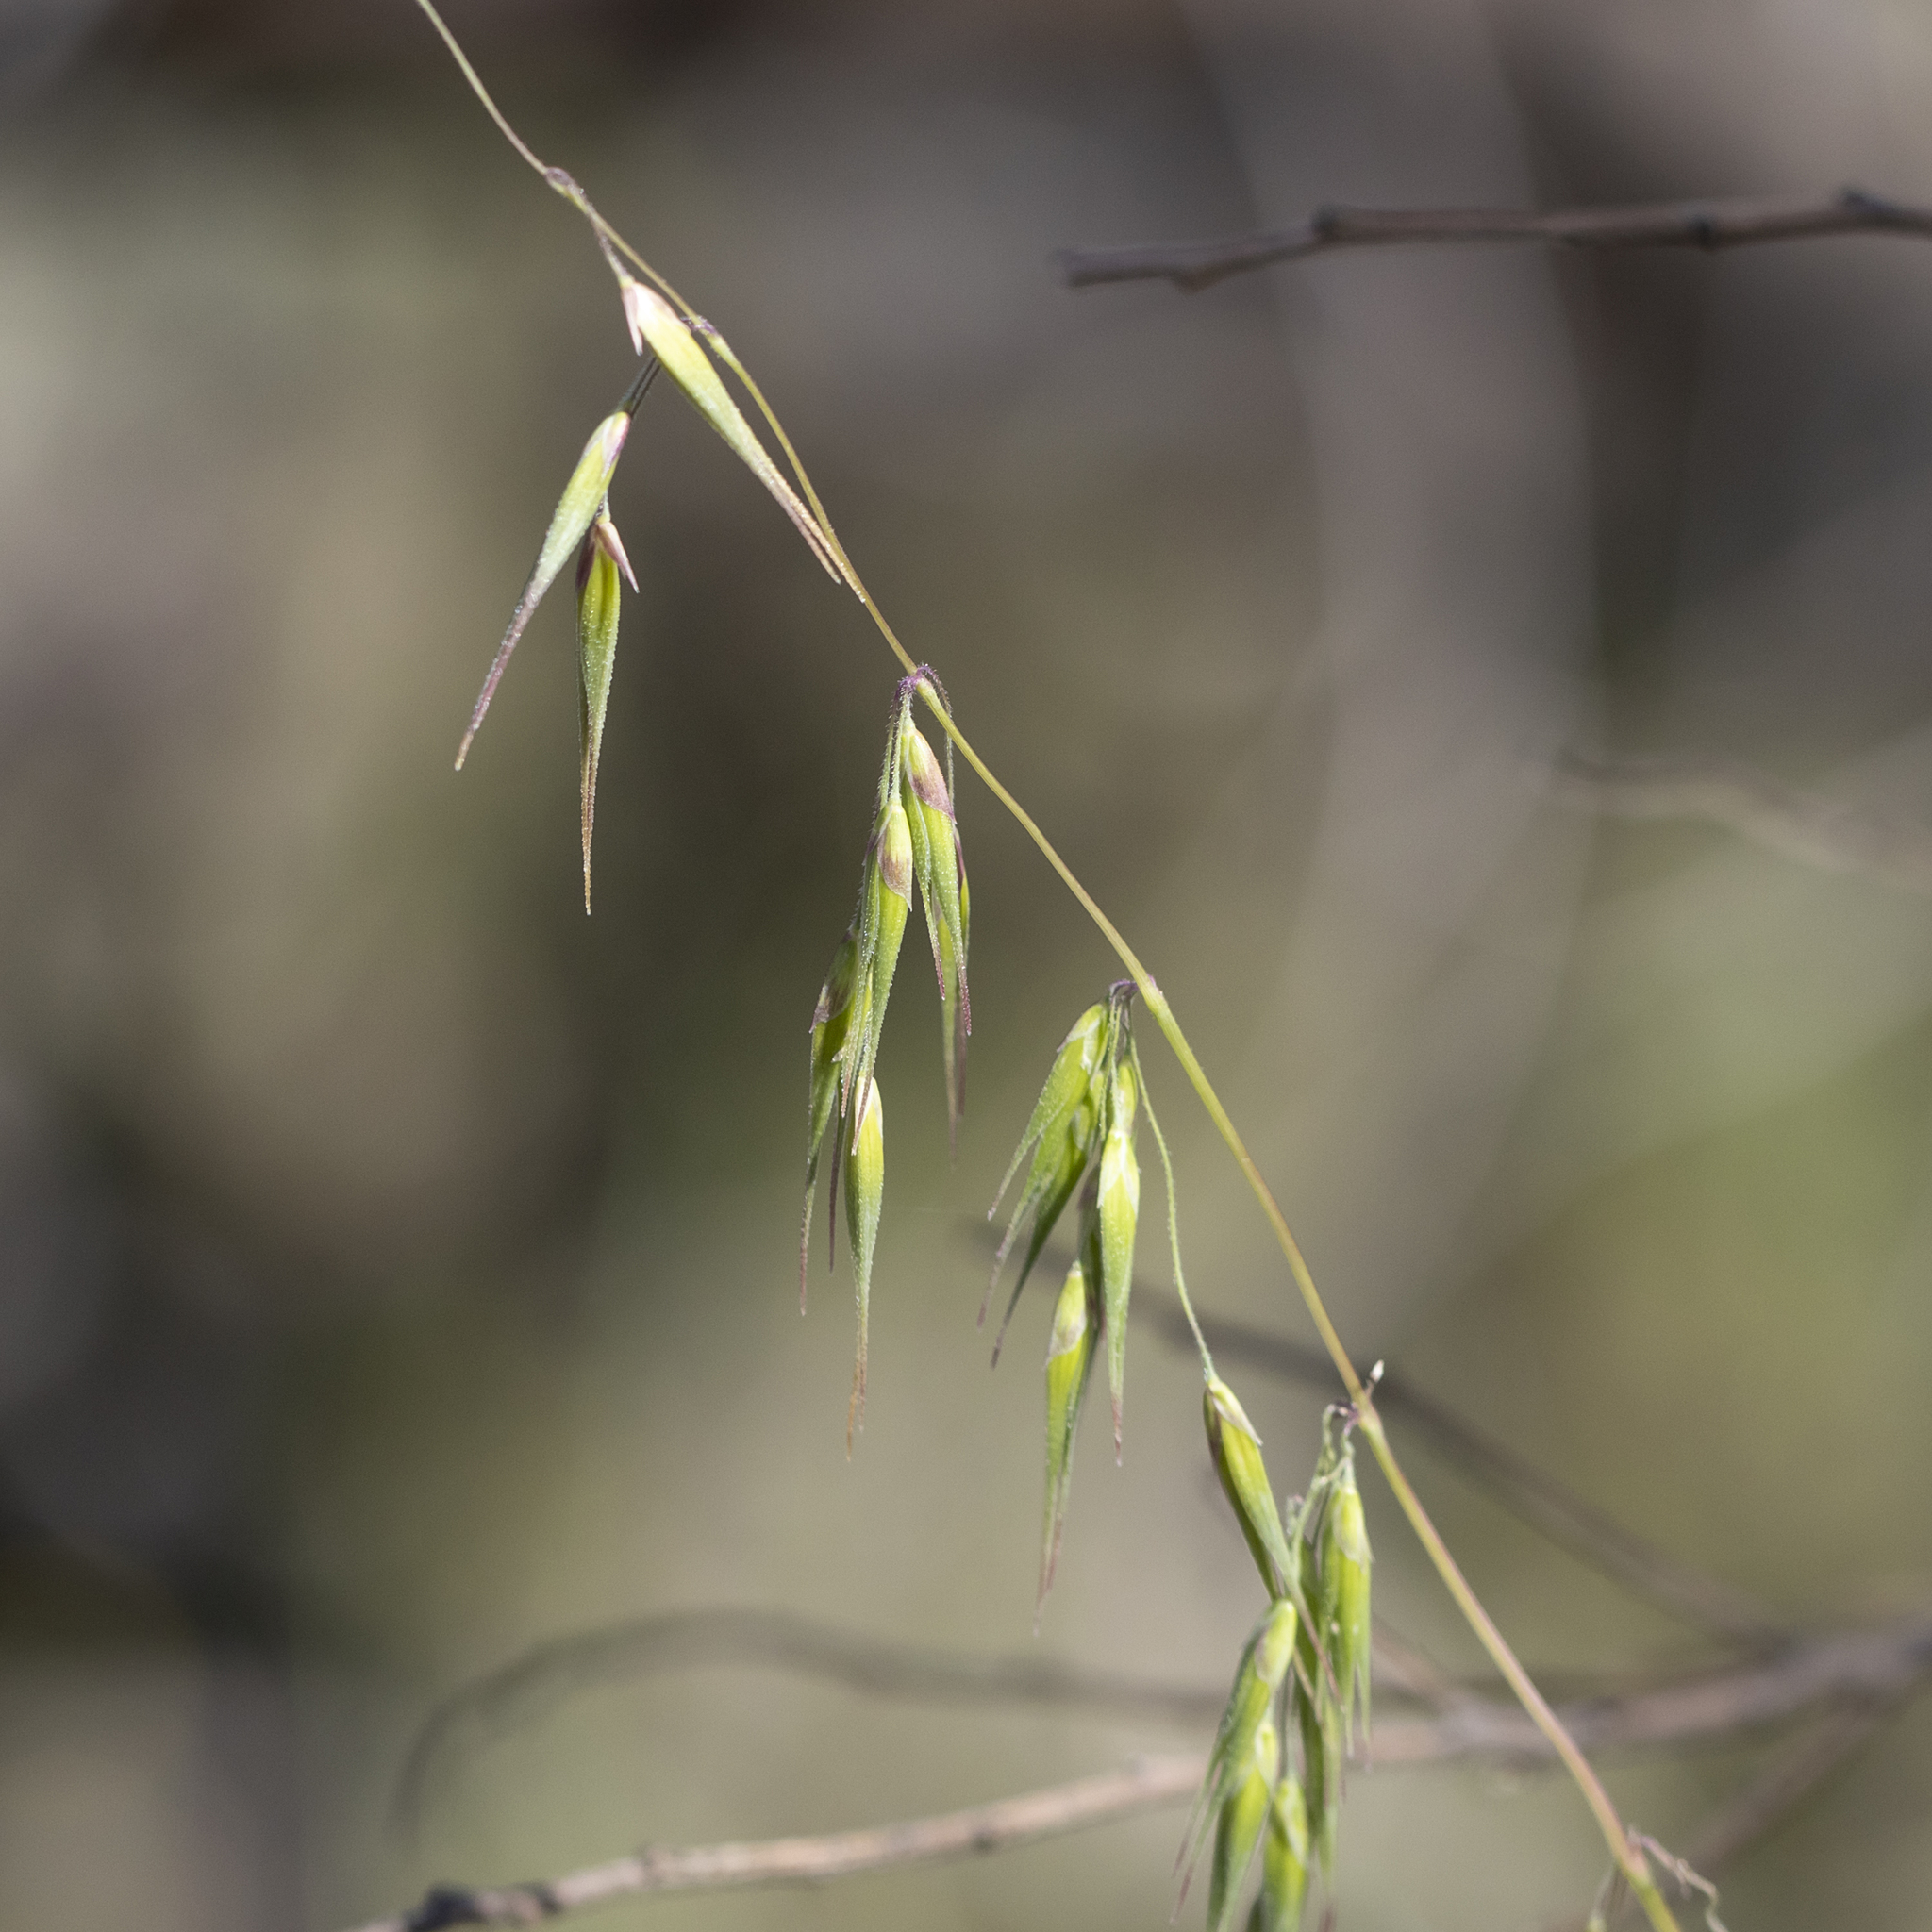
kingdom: Plantae
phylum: Tracheophyta
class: Liliopsida
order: Poales
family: Poaceae
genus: Ehrharta
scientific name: Ehrharta longiflora
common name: Longflowered veldtgrass
